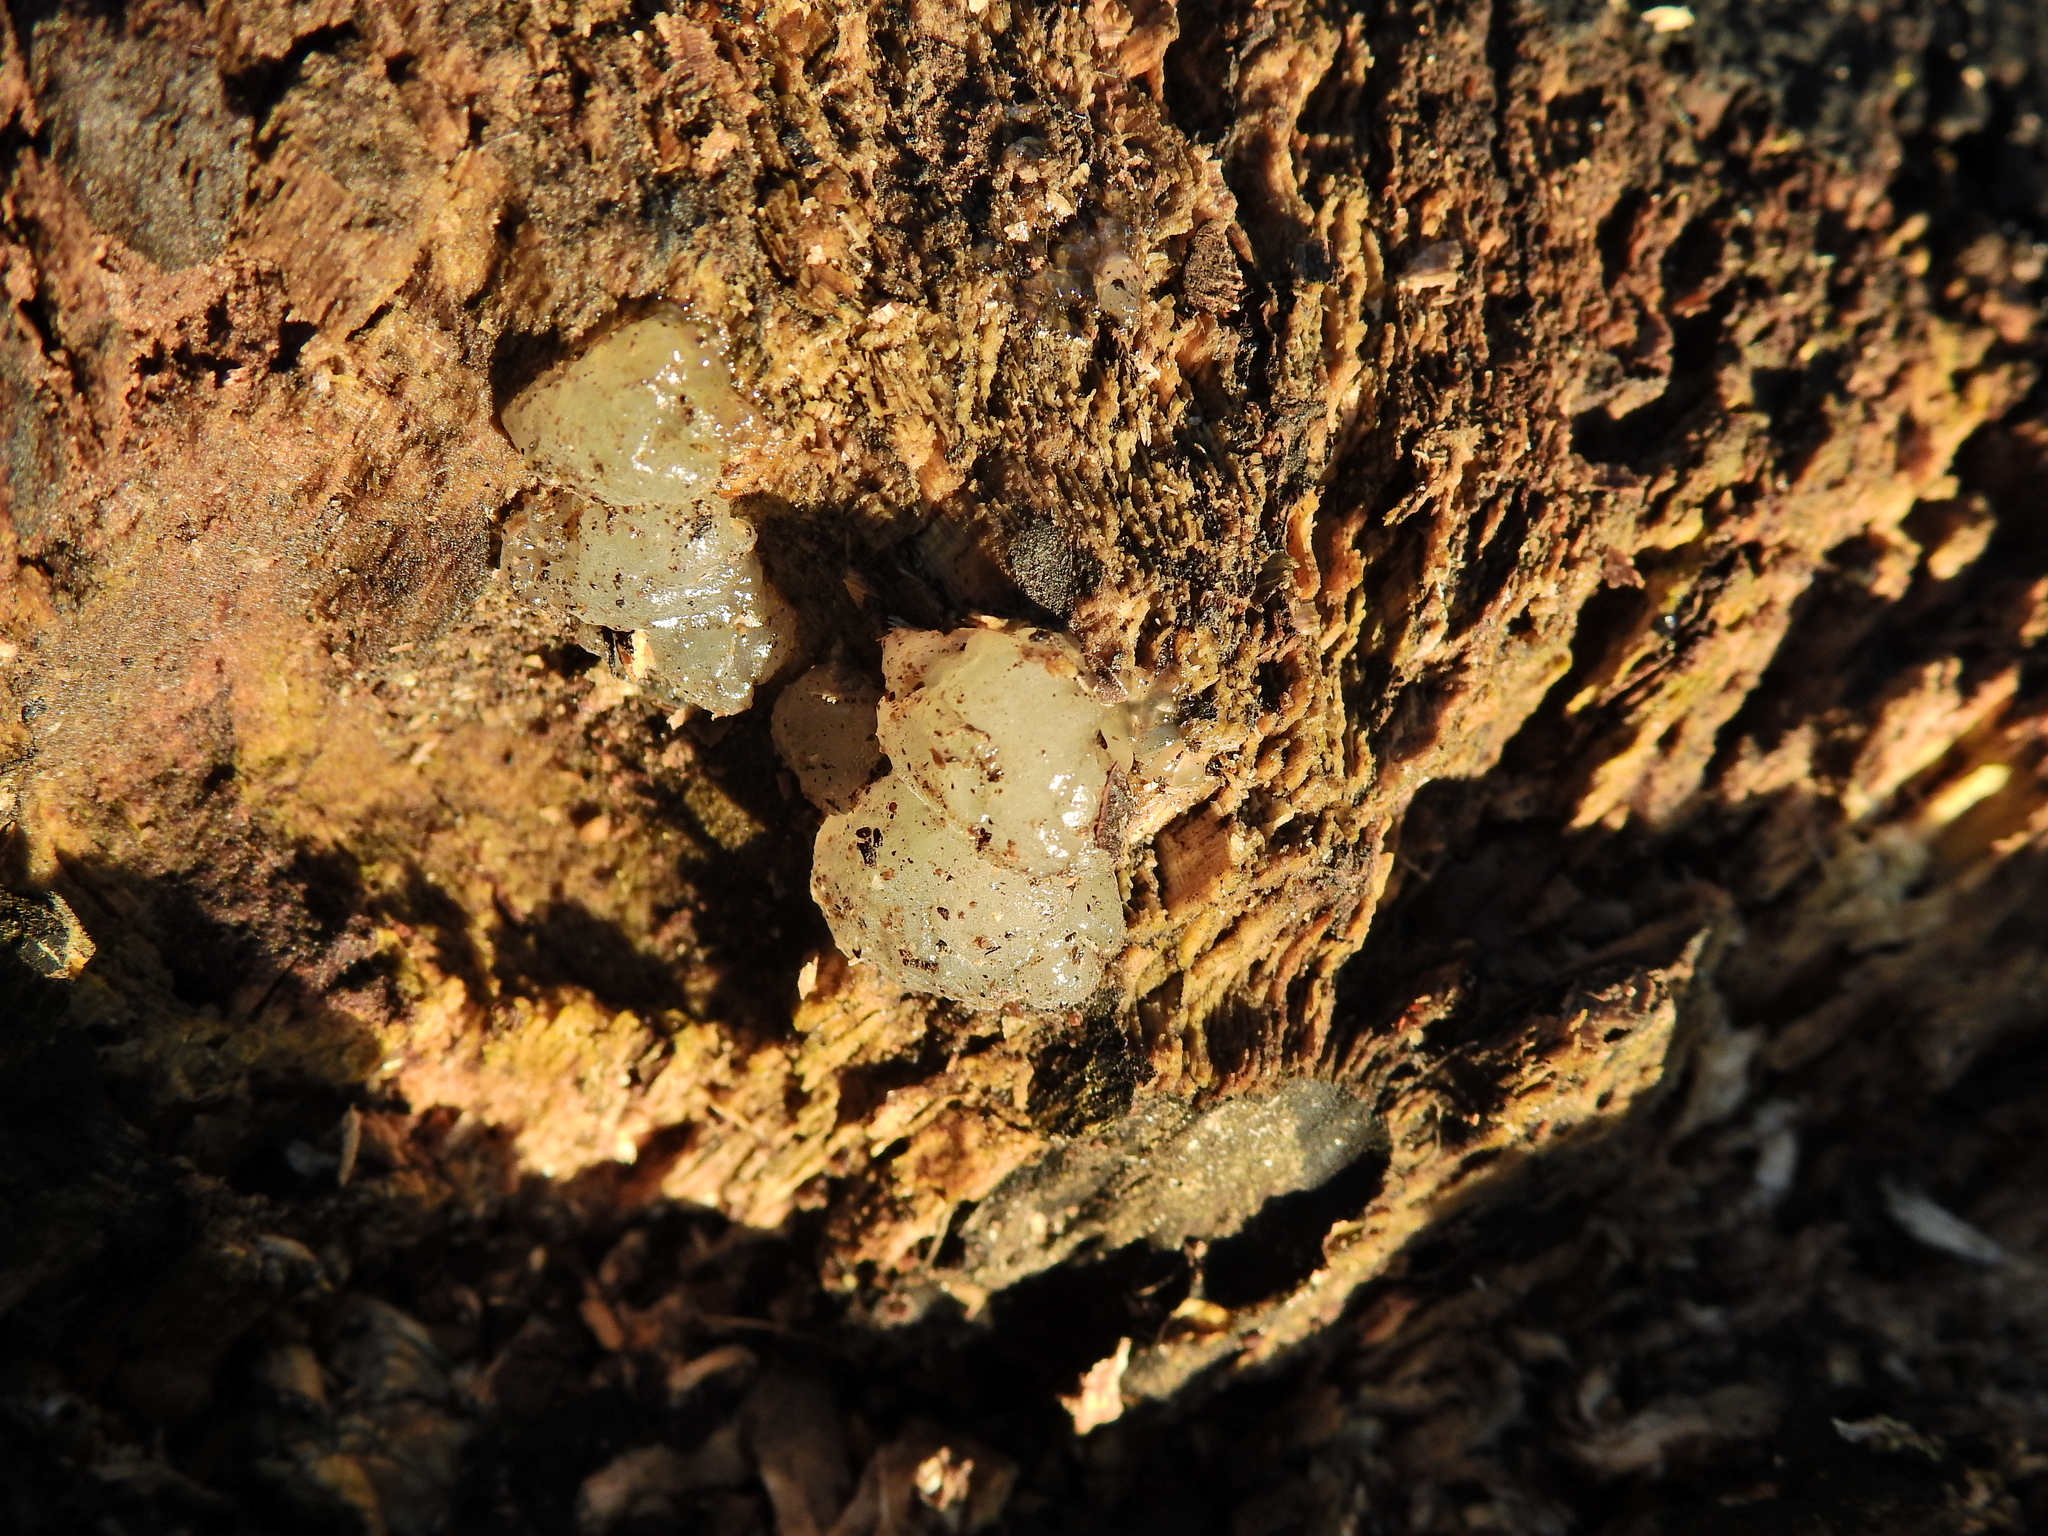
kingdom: Fungi
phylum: Basidiomycota
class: Agaricomycetes
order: Auriculariales
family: Hyaloriaceae
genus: Myxarium
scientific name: Myxarium nucleatum
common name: Crystal brain fungus
